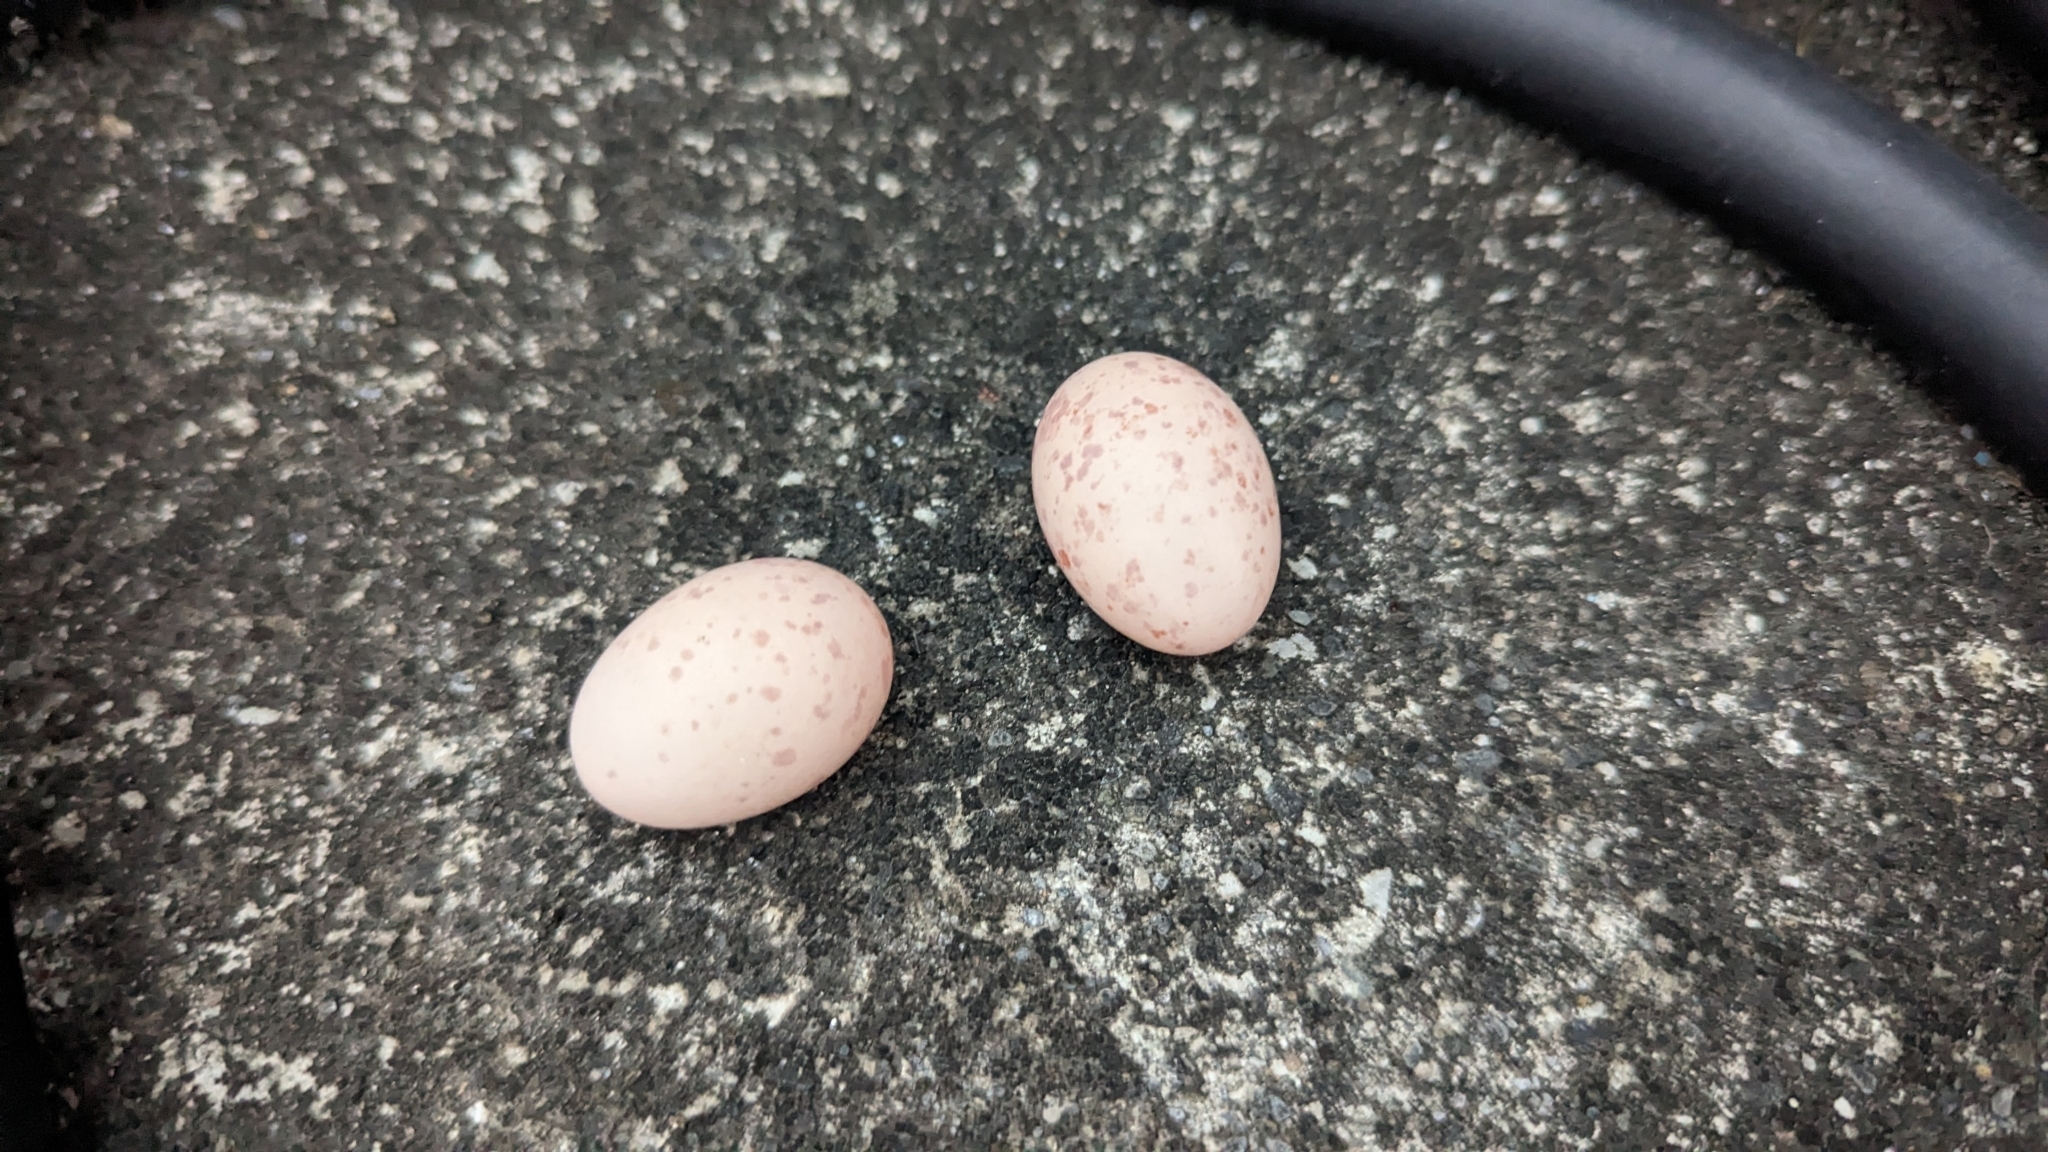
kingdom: Animalia
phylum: Chordata
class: Aves
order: Caprimulgiformes
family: Caprimulgidae
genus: Caprimulgus
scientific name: Caprimulgus affinis
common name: Savanna nightjar
